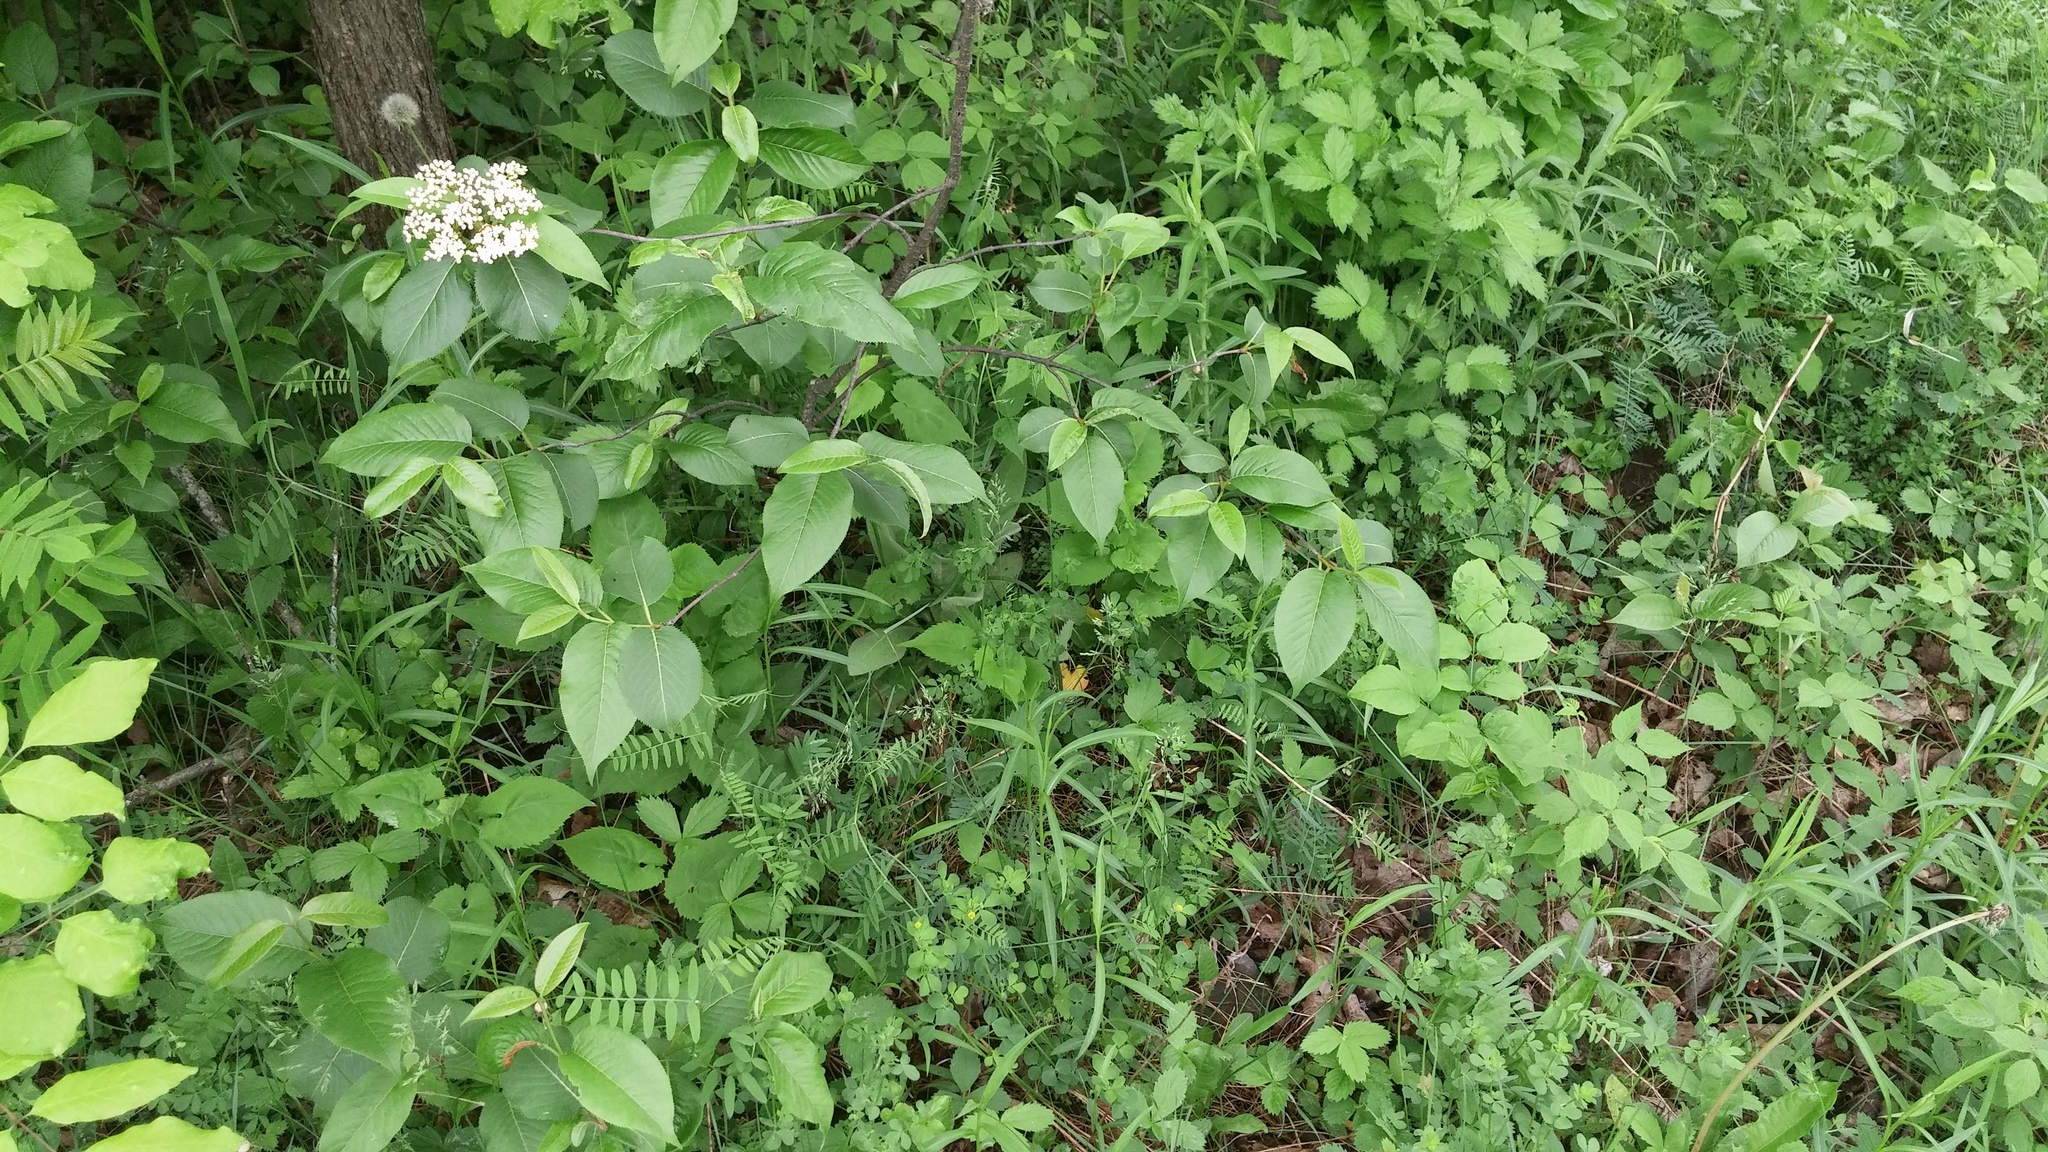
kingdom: Plantae
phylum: Tracheophyta
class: Magnoliopsida
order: Dipsacales
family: Viburnaceae
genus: Viburnum
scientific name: Viburnum lentago
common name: Black haw
